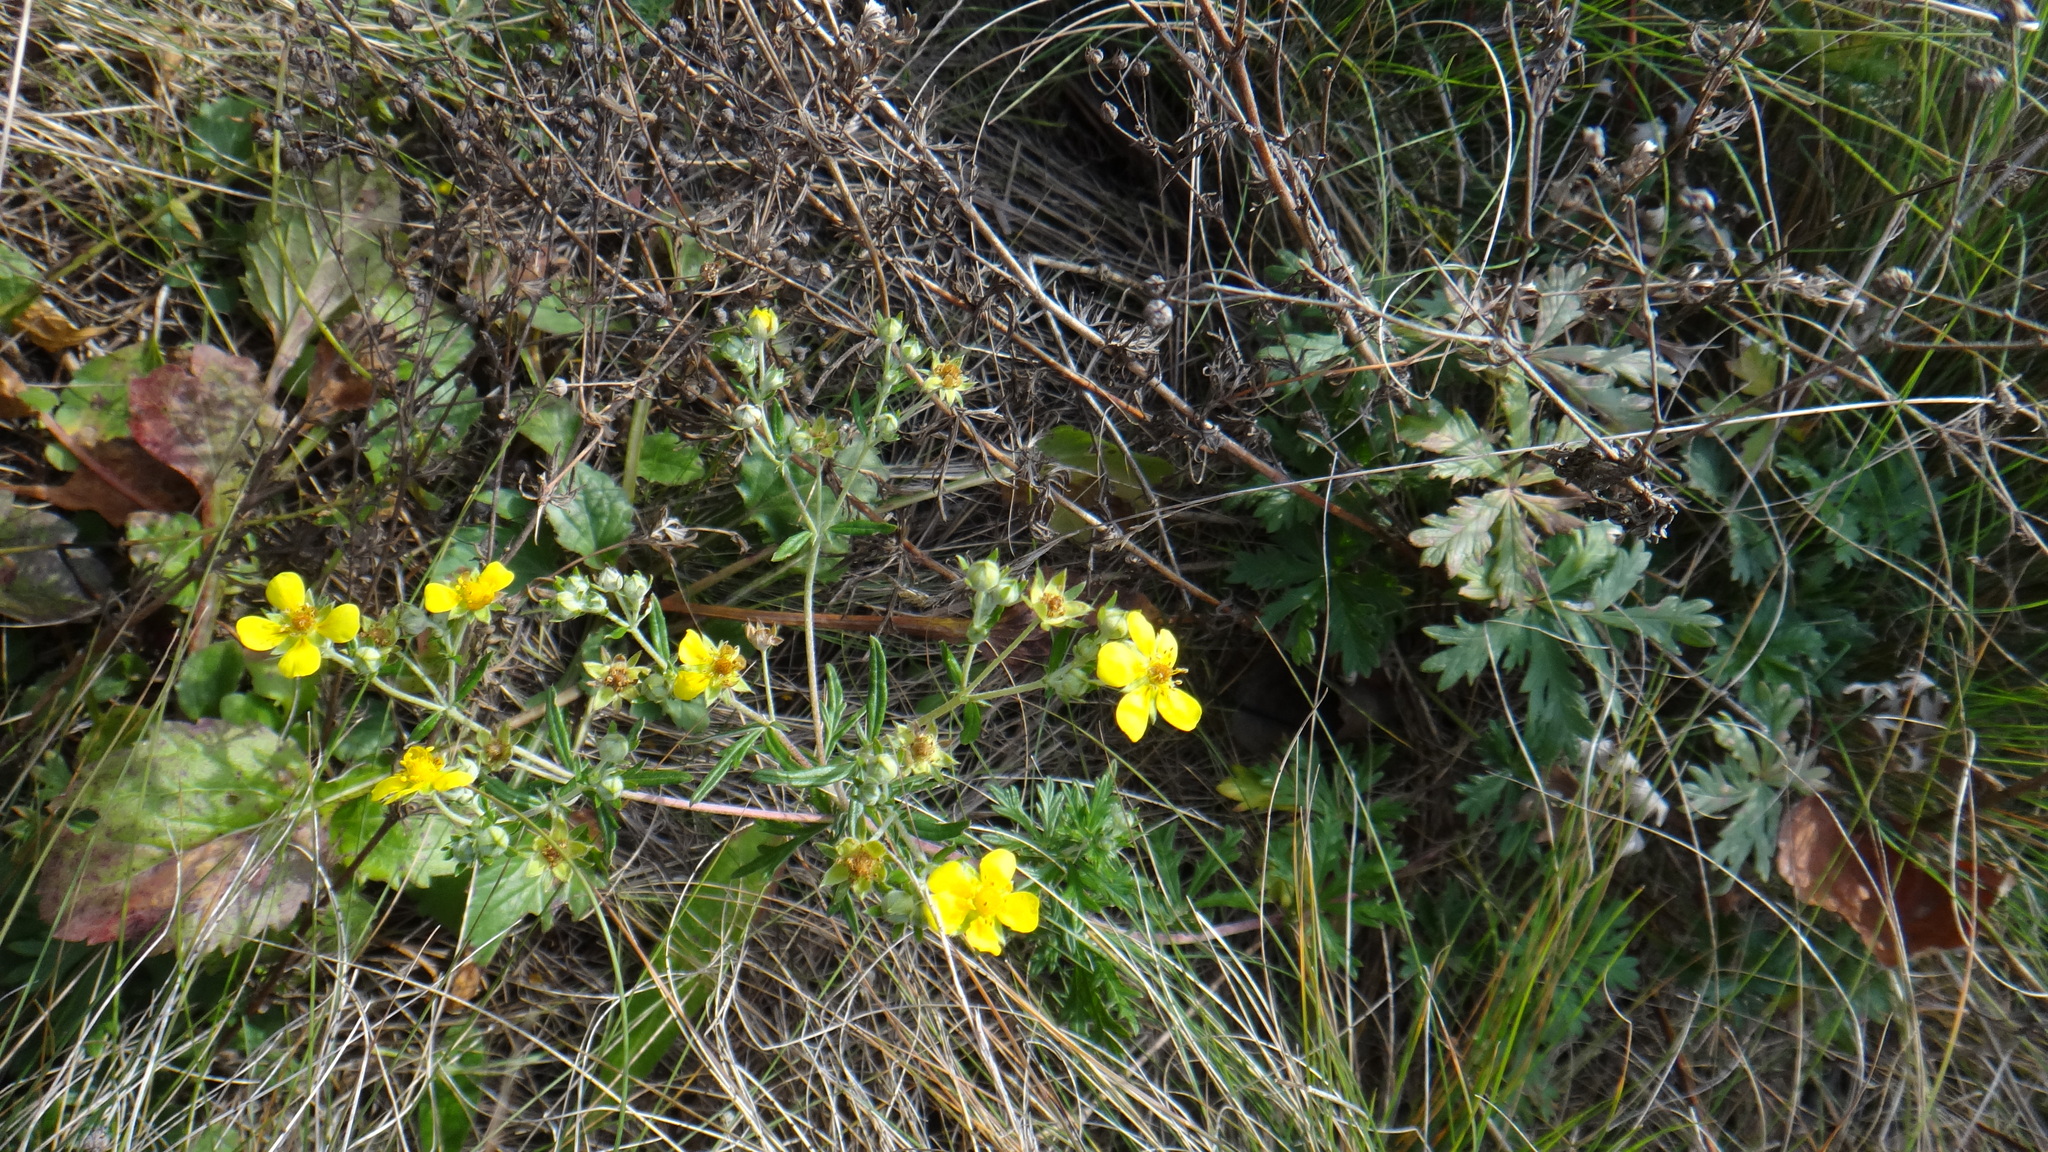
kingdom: Plantae
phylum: Tracheophyta
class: Magnoliopsida
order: Rosales
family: Rosaceae
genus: Potentilla
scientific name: Potentilla argentea
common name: Hoary cinquefoil
